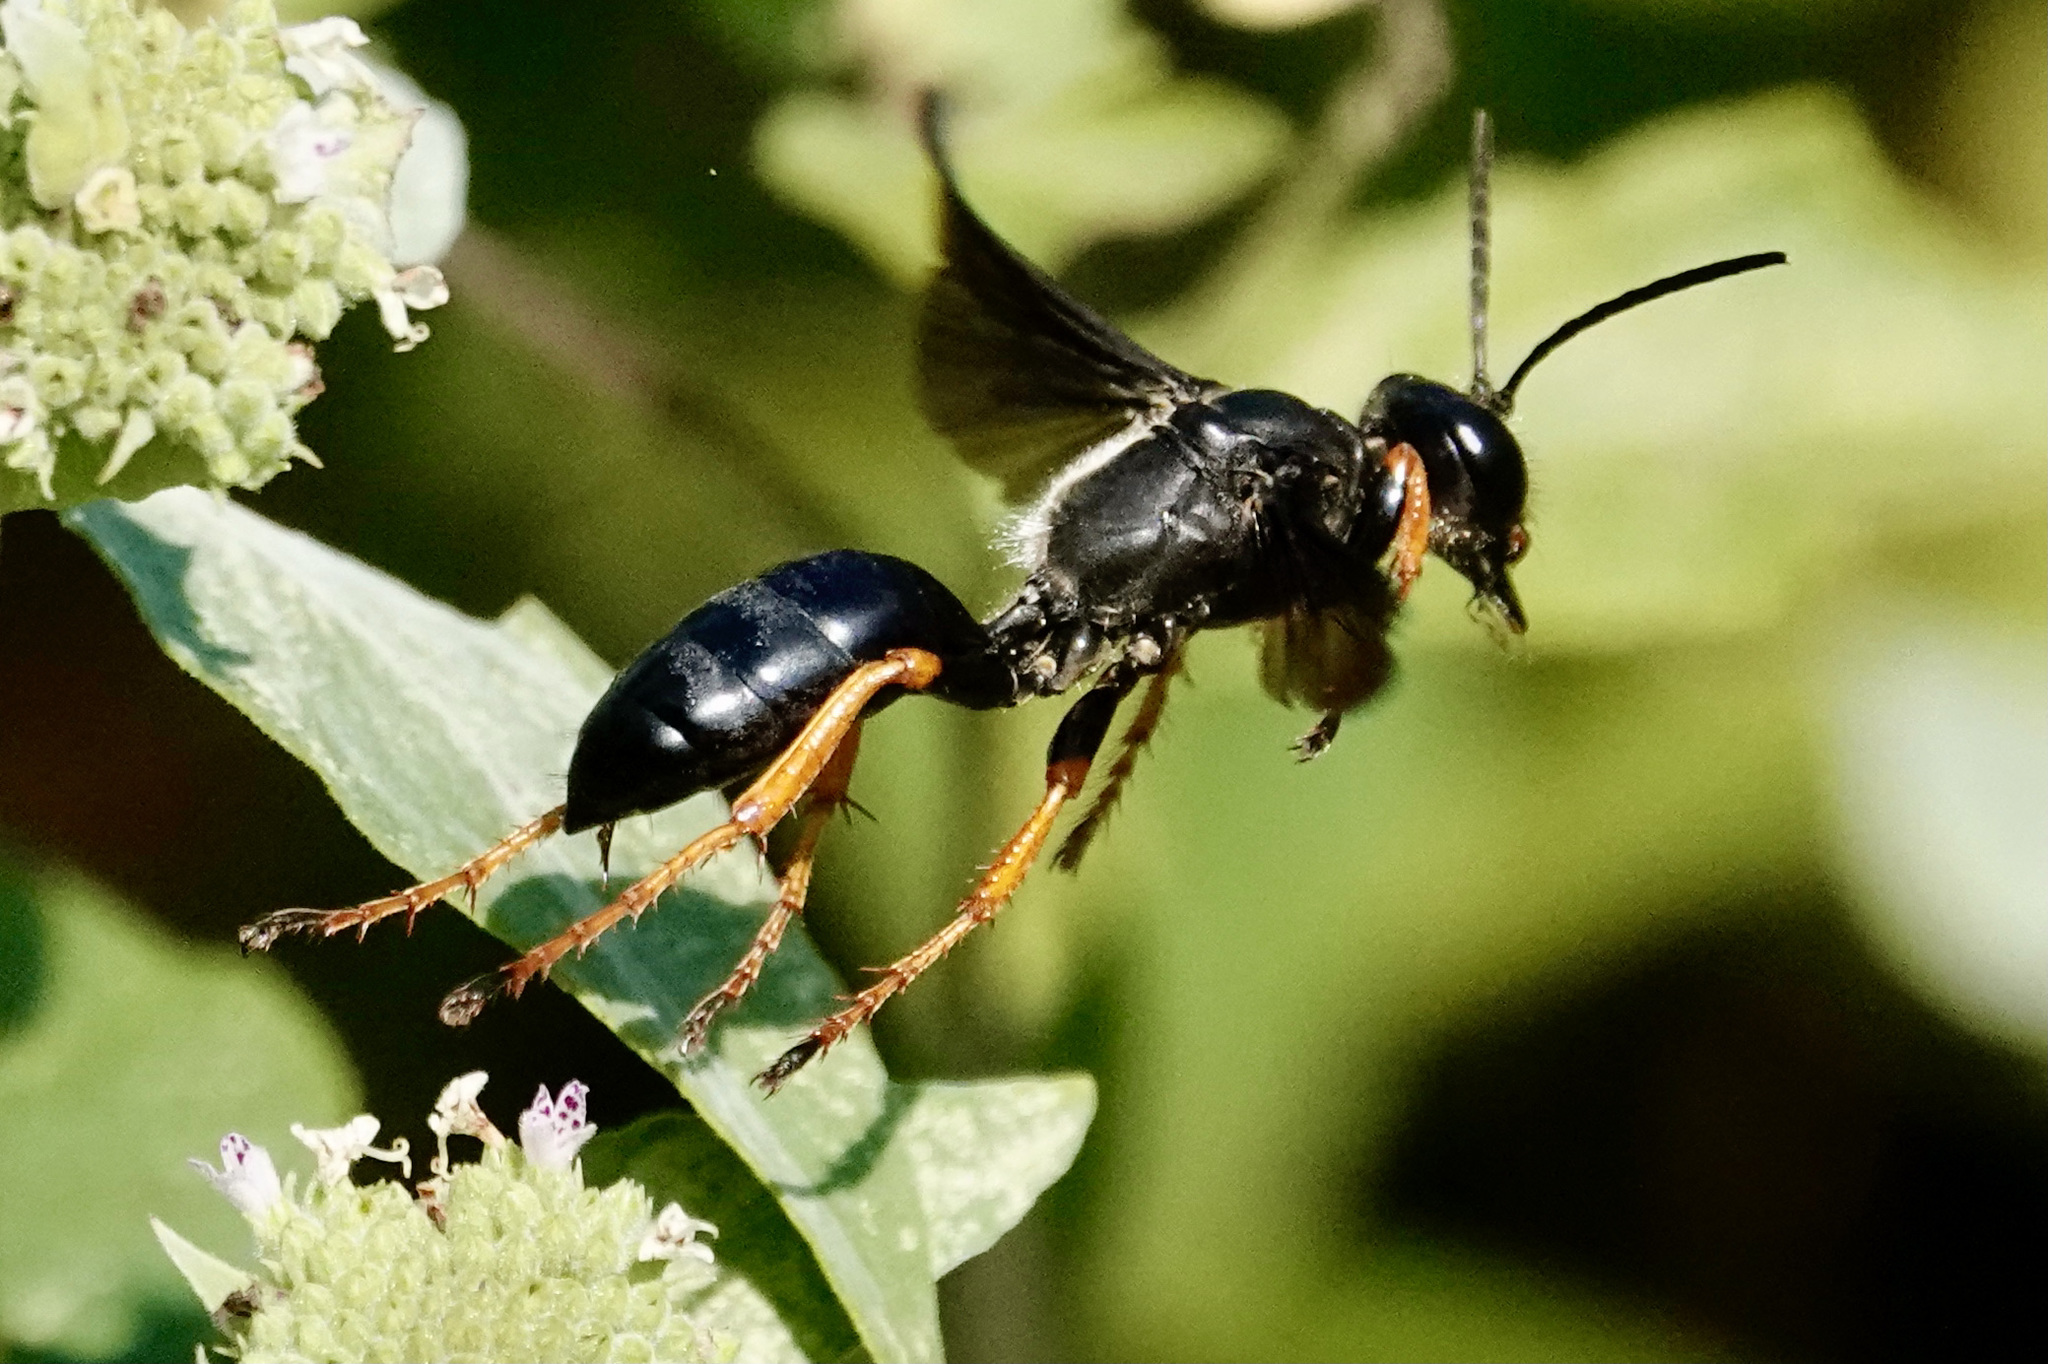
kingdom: Animalia
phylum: Arthropoda
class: Insecta
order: Hymenoptera
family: Sphecidae
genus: Sphex
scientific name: Sphex nudus
